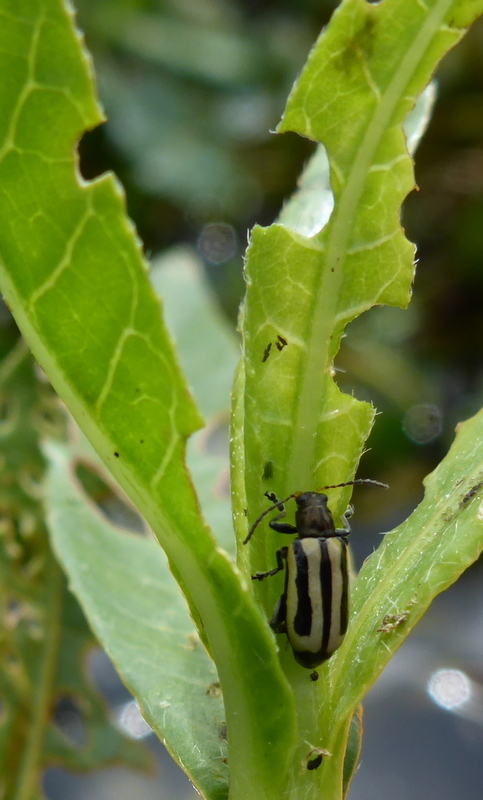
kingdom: Animalia
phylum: Arthropoda
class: Insecta
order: Coleoptera
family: Chrysomelidae
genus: Agasicles
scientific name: Agasicles hygrophila
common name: Alligatorweed flea beetle
